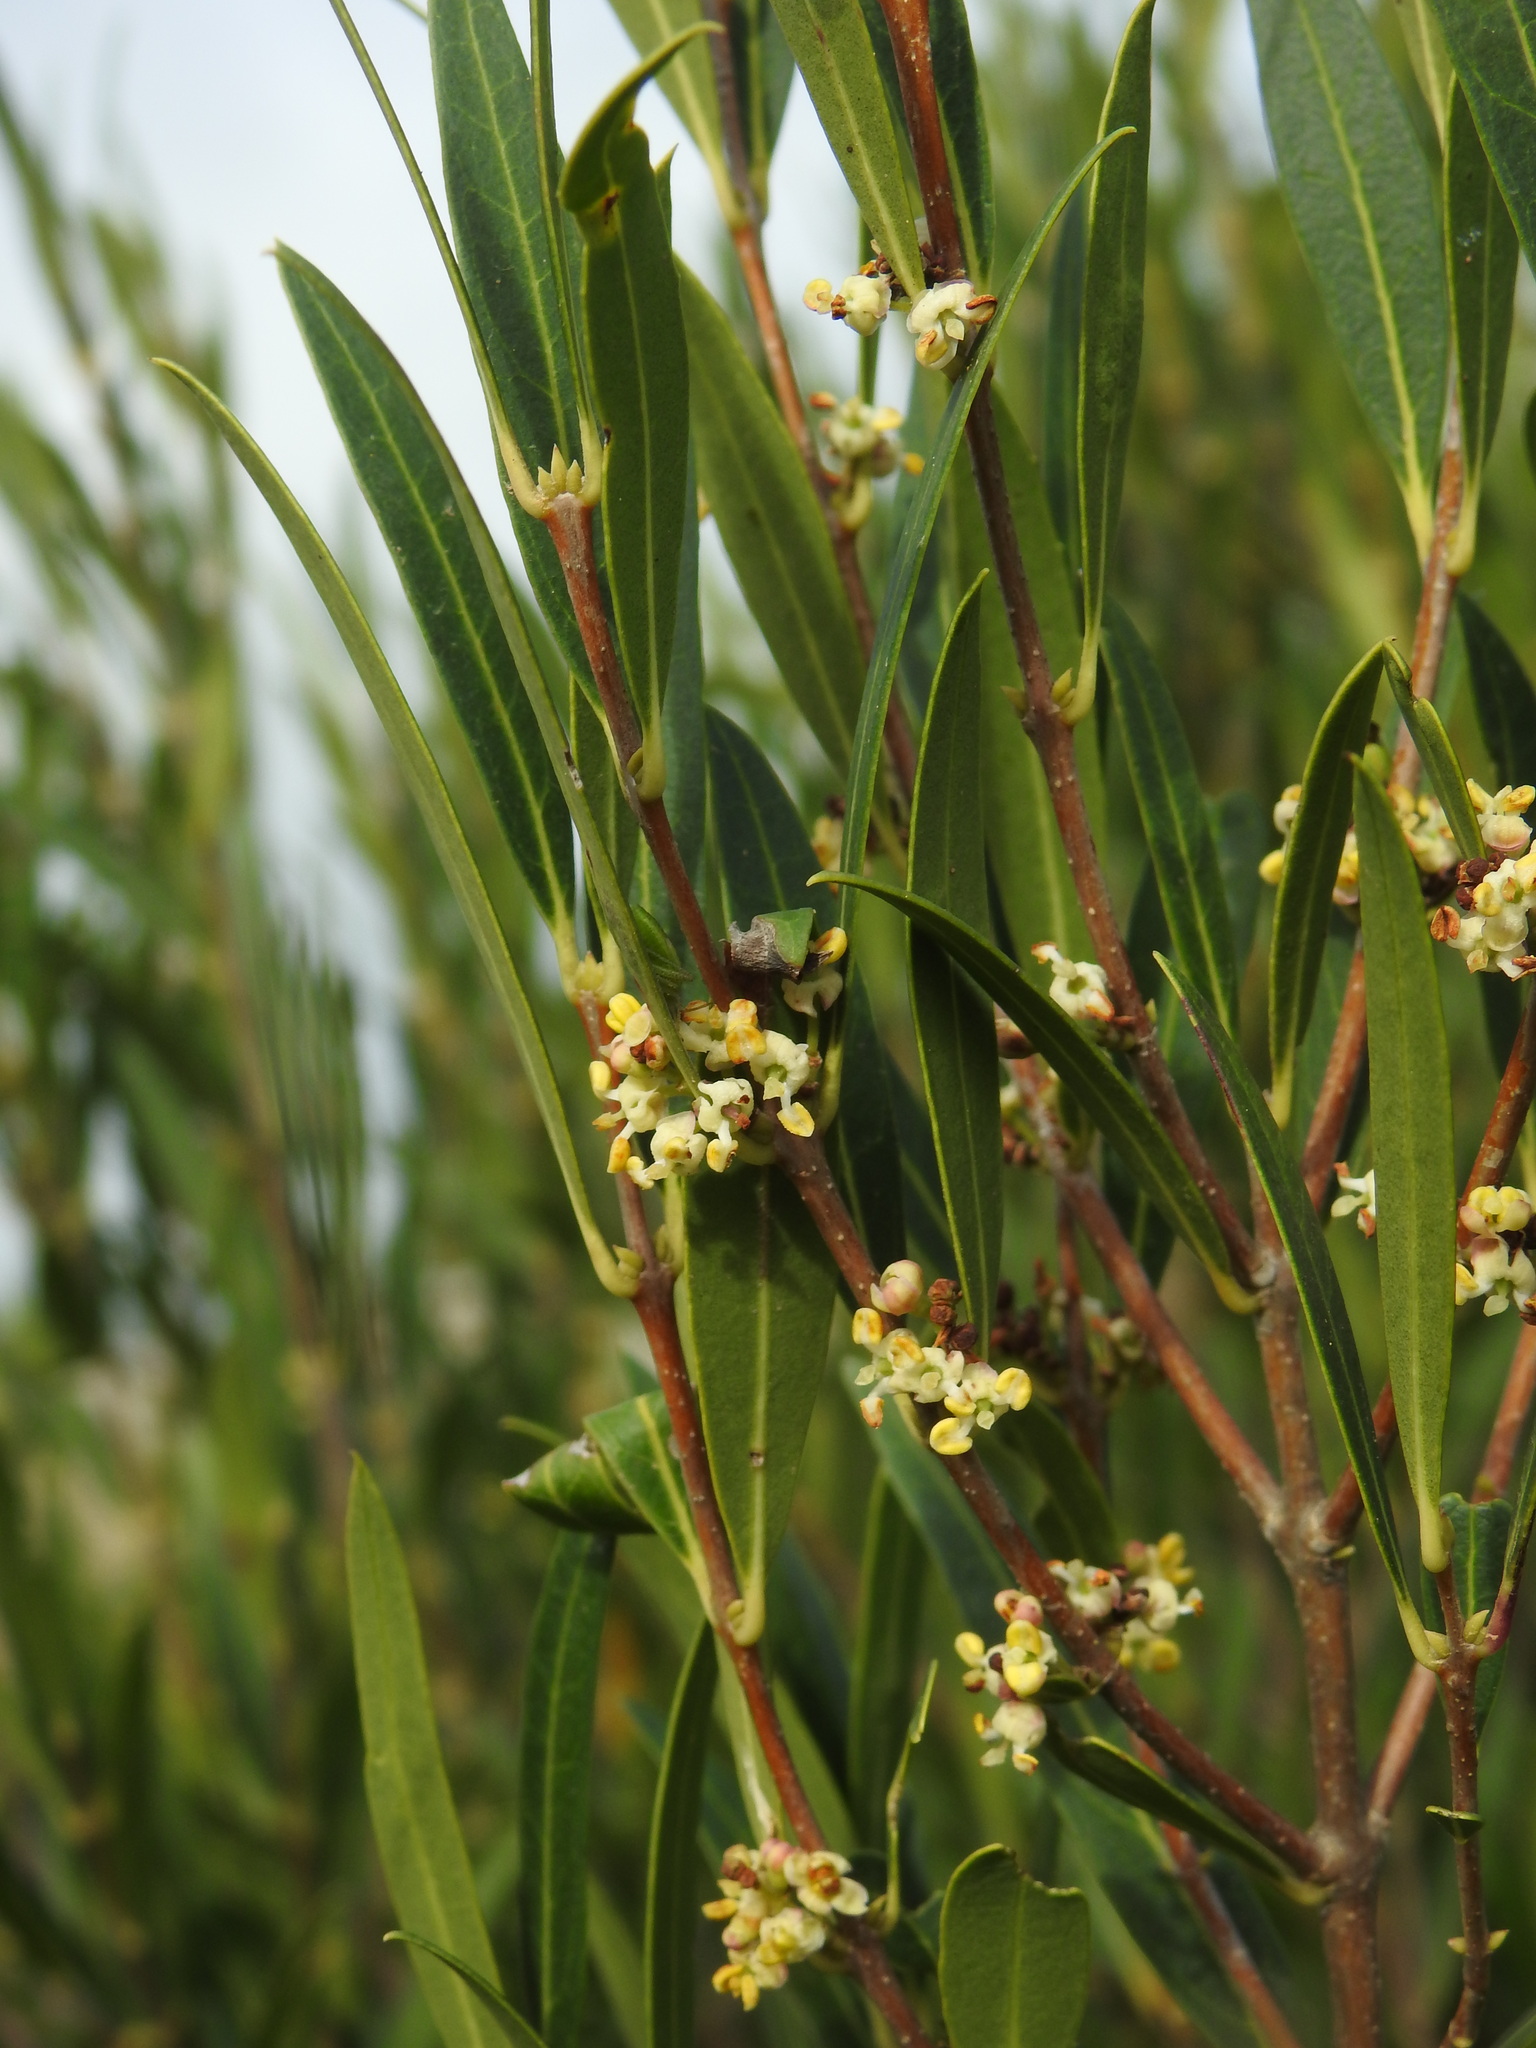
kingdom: Plantae
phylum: Tracheophyta
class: Magnoliopsida
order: Lamiales
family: Oleaceae
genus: Phillyrea
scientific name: Phillyrea angustifolia
